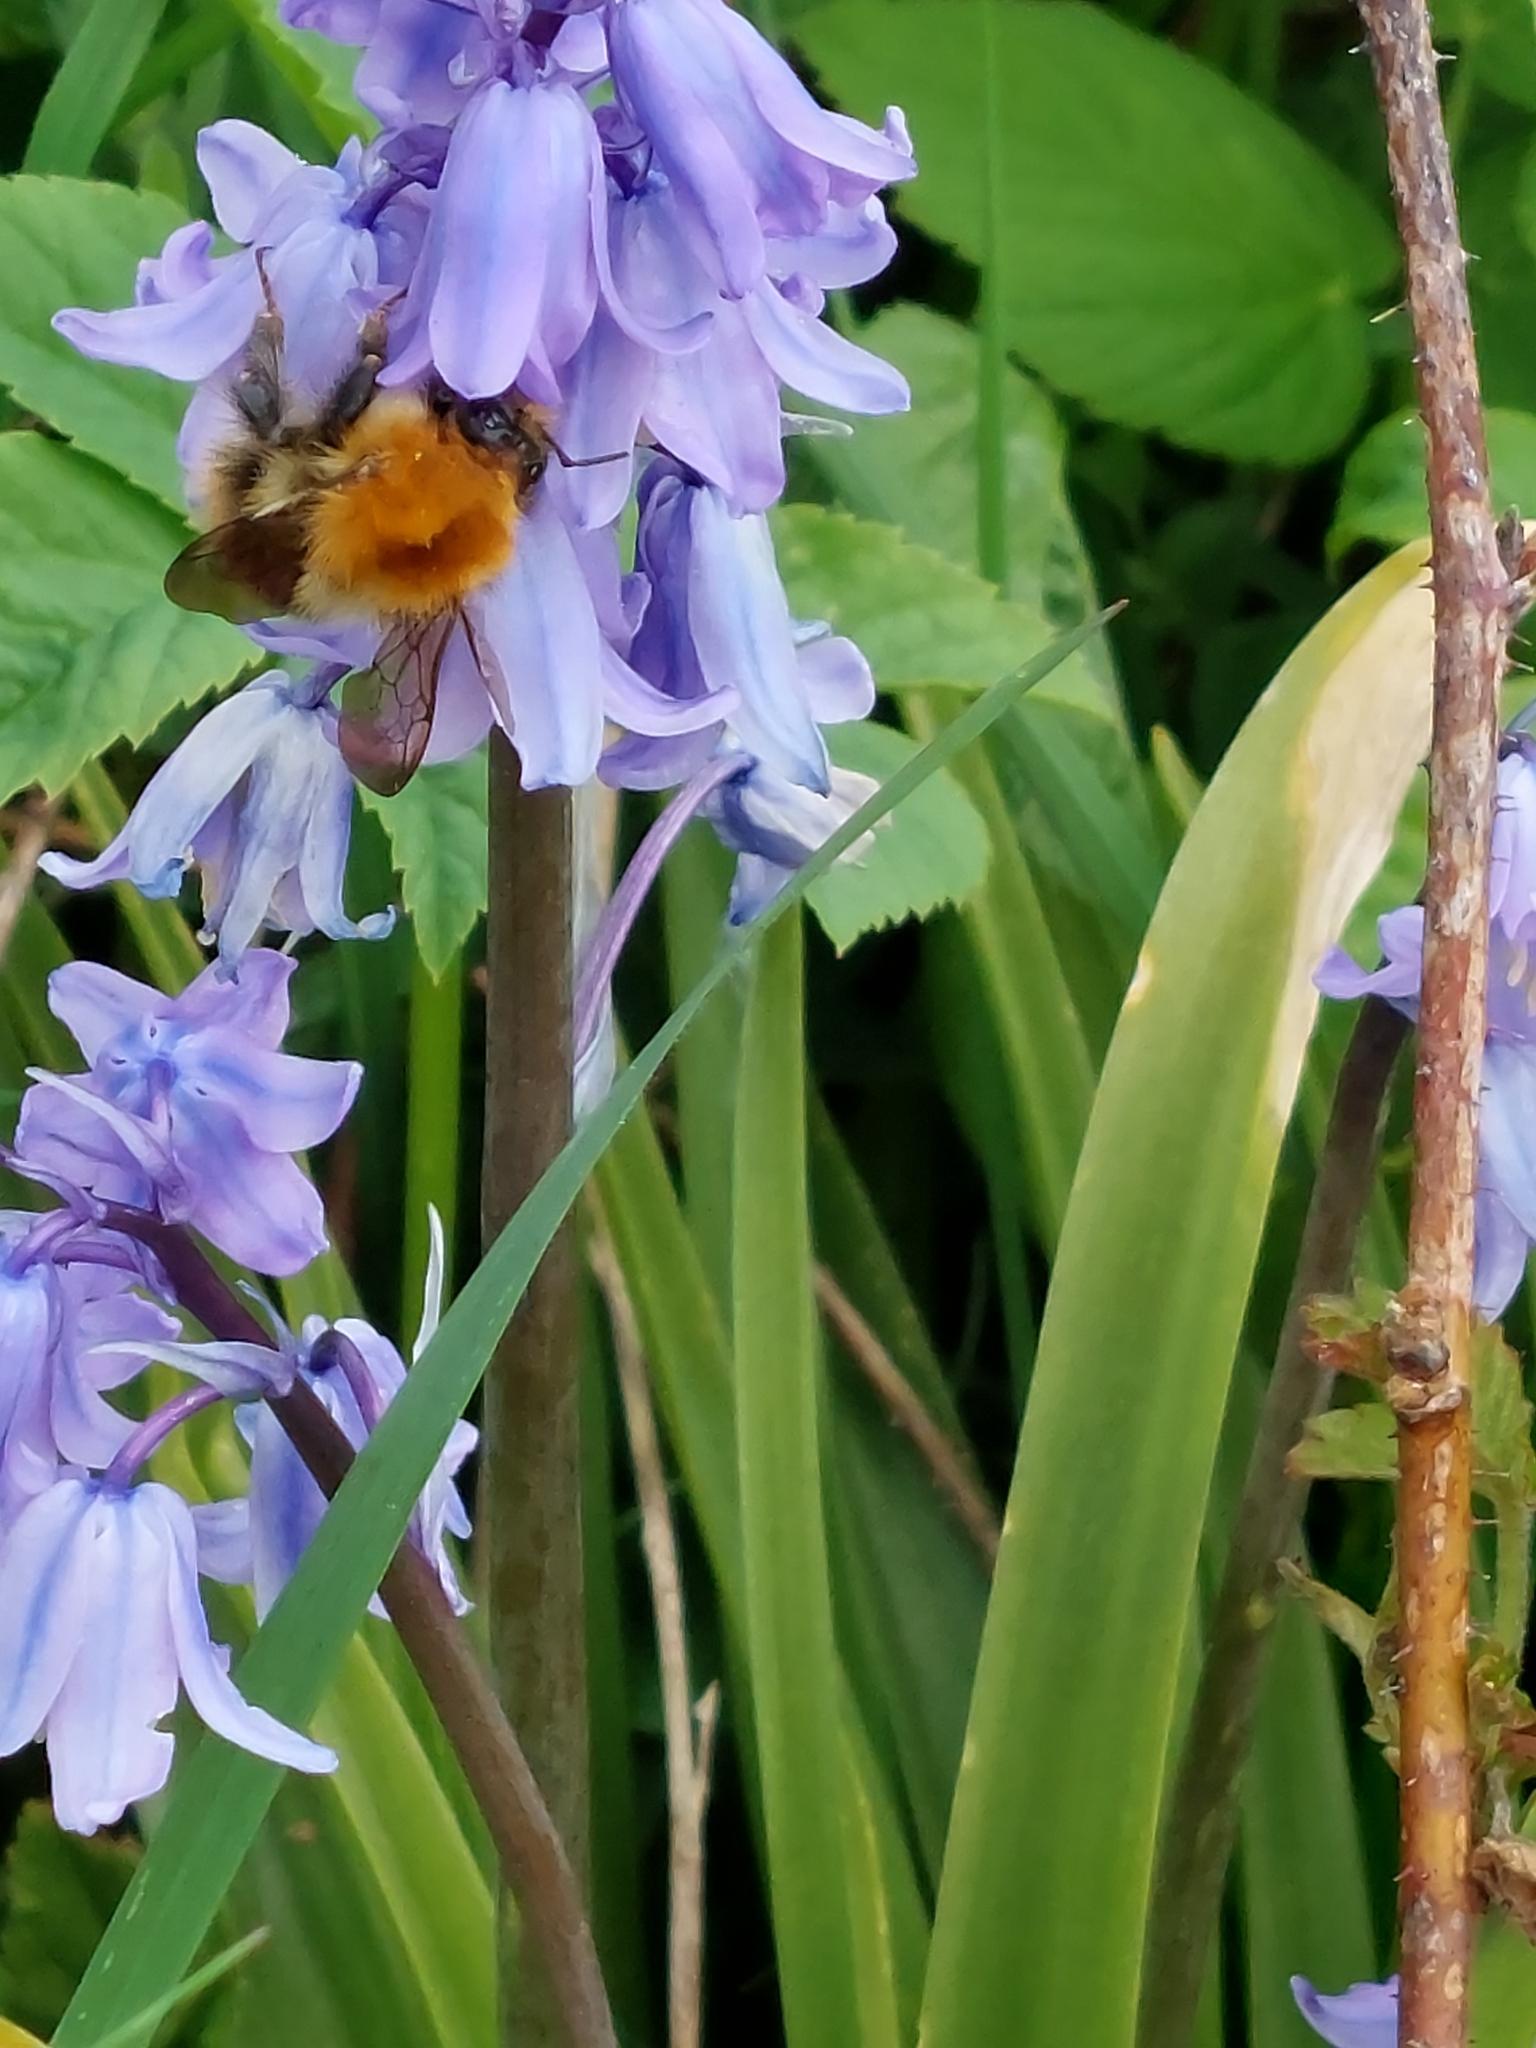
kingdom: Animalia
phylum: Arthropoda
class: Insecta
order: Hymenoptera
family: Apidae
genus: Bombus
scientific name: Bombus pascuorum
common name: Common carder bee
